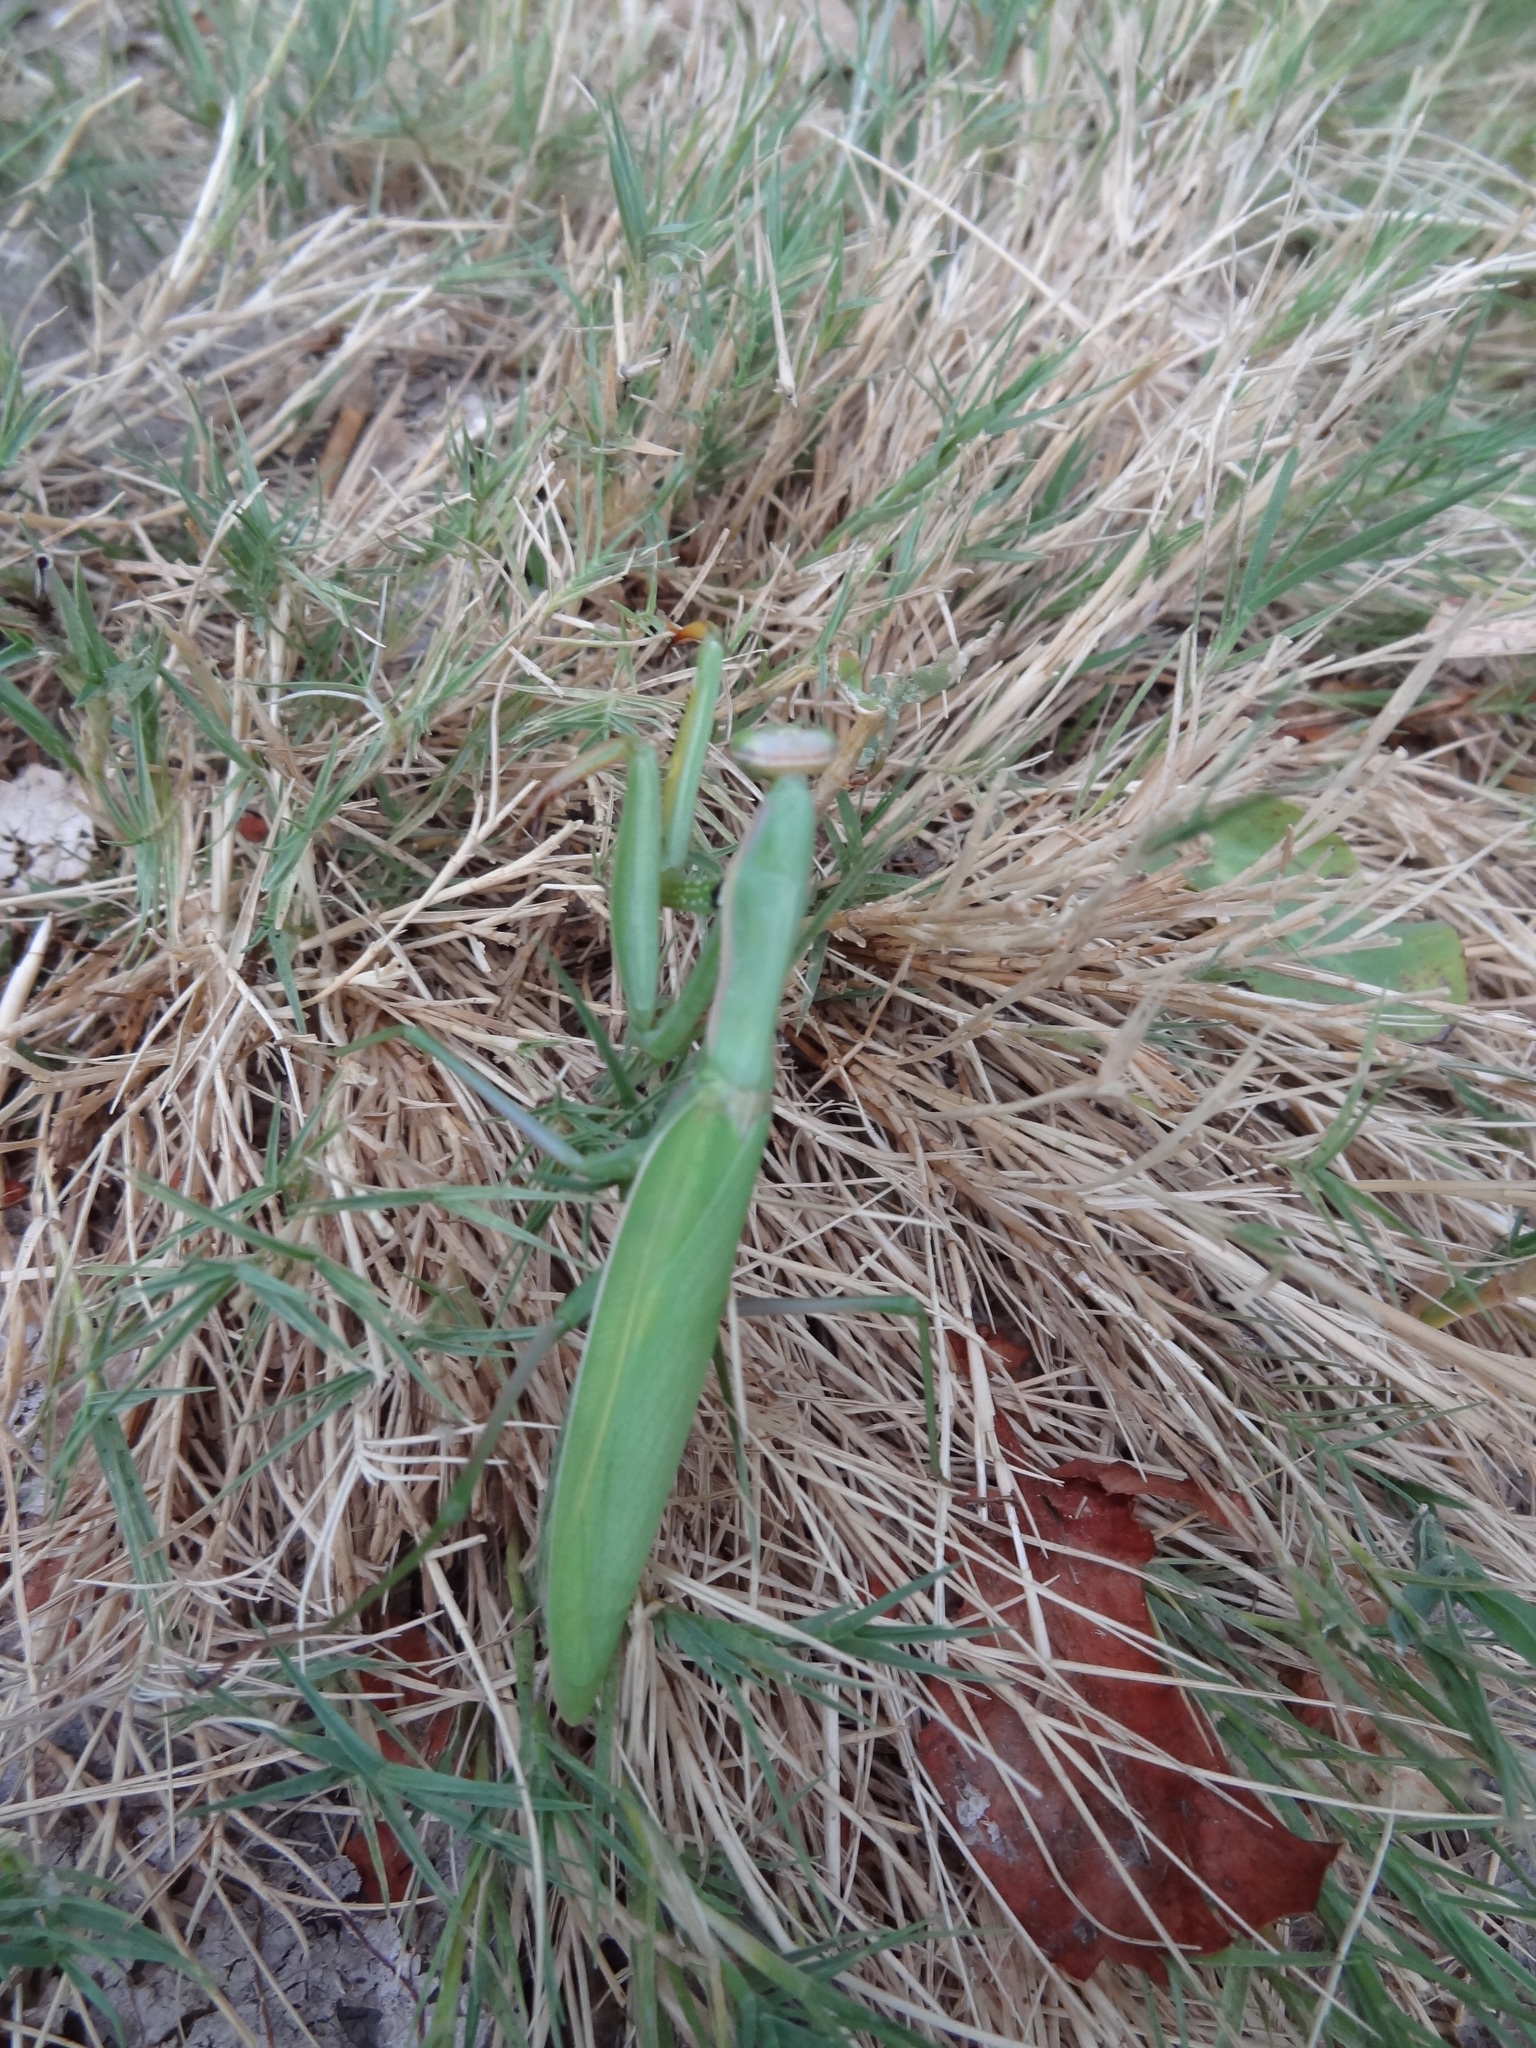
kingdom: Animalia
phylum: Arthropoda
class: Insecta
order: Mantodea
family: Mantidae
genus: Mantis
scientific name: Mantis religiosa
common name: Praying mantis
